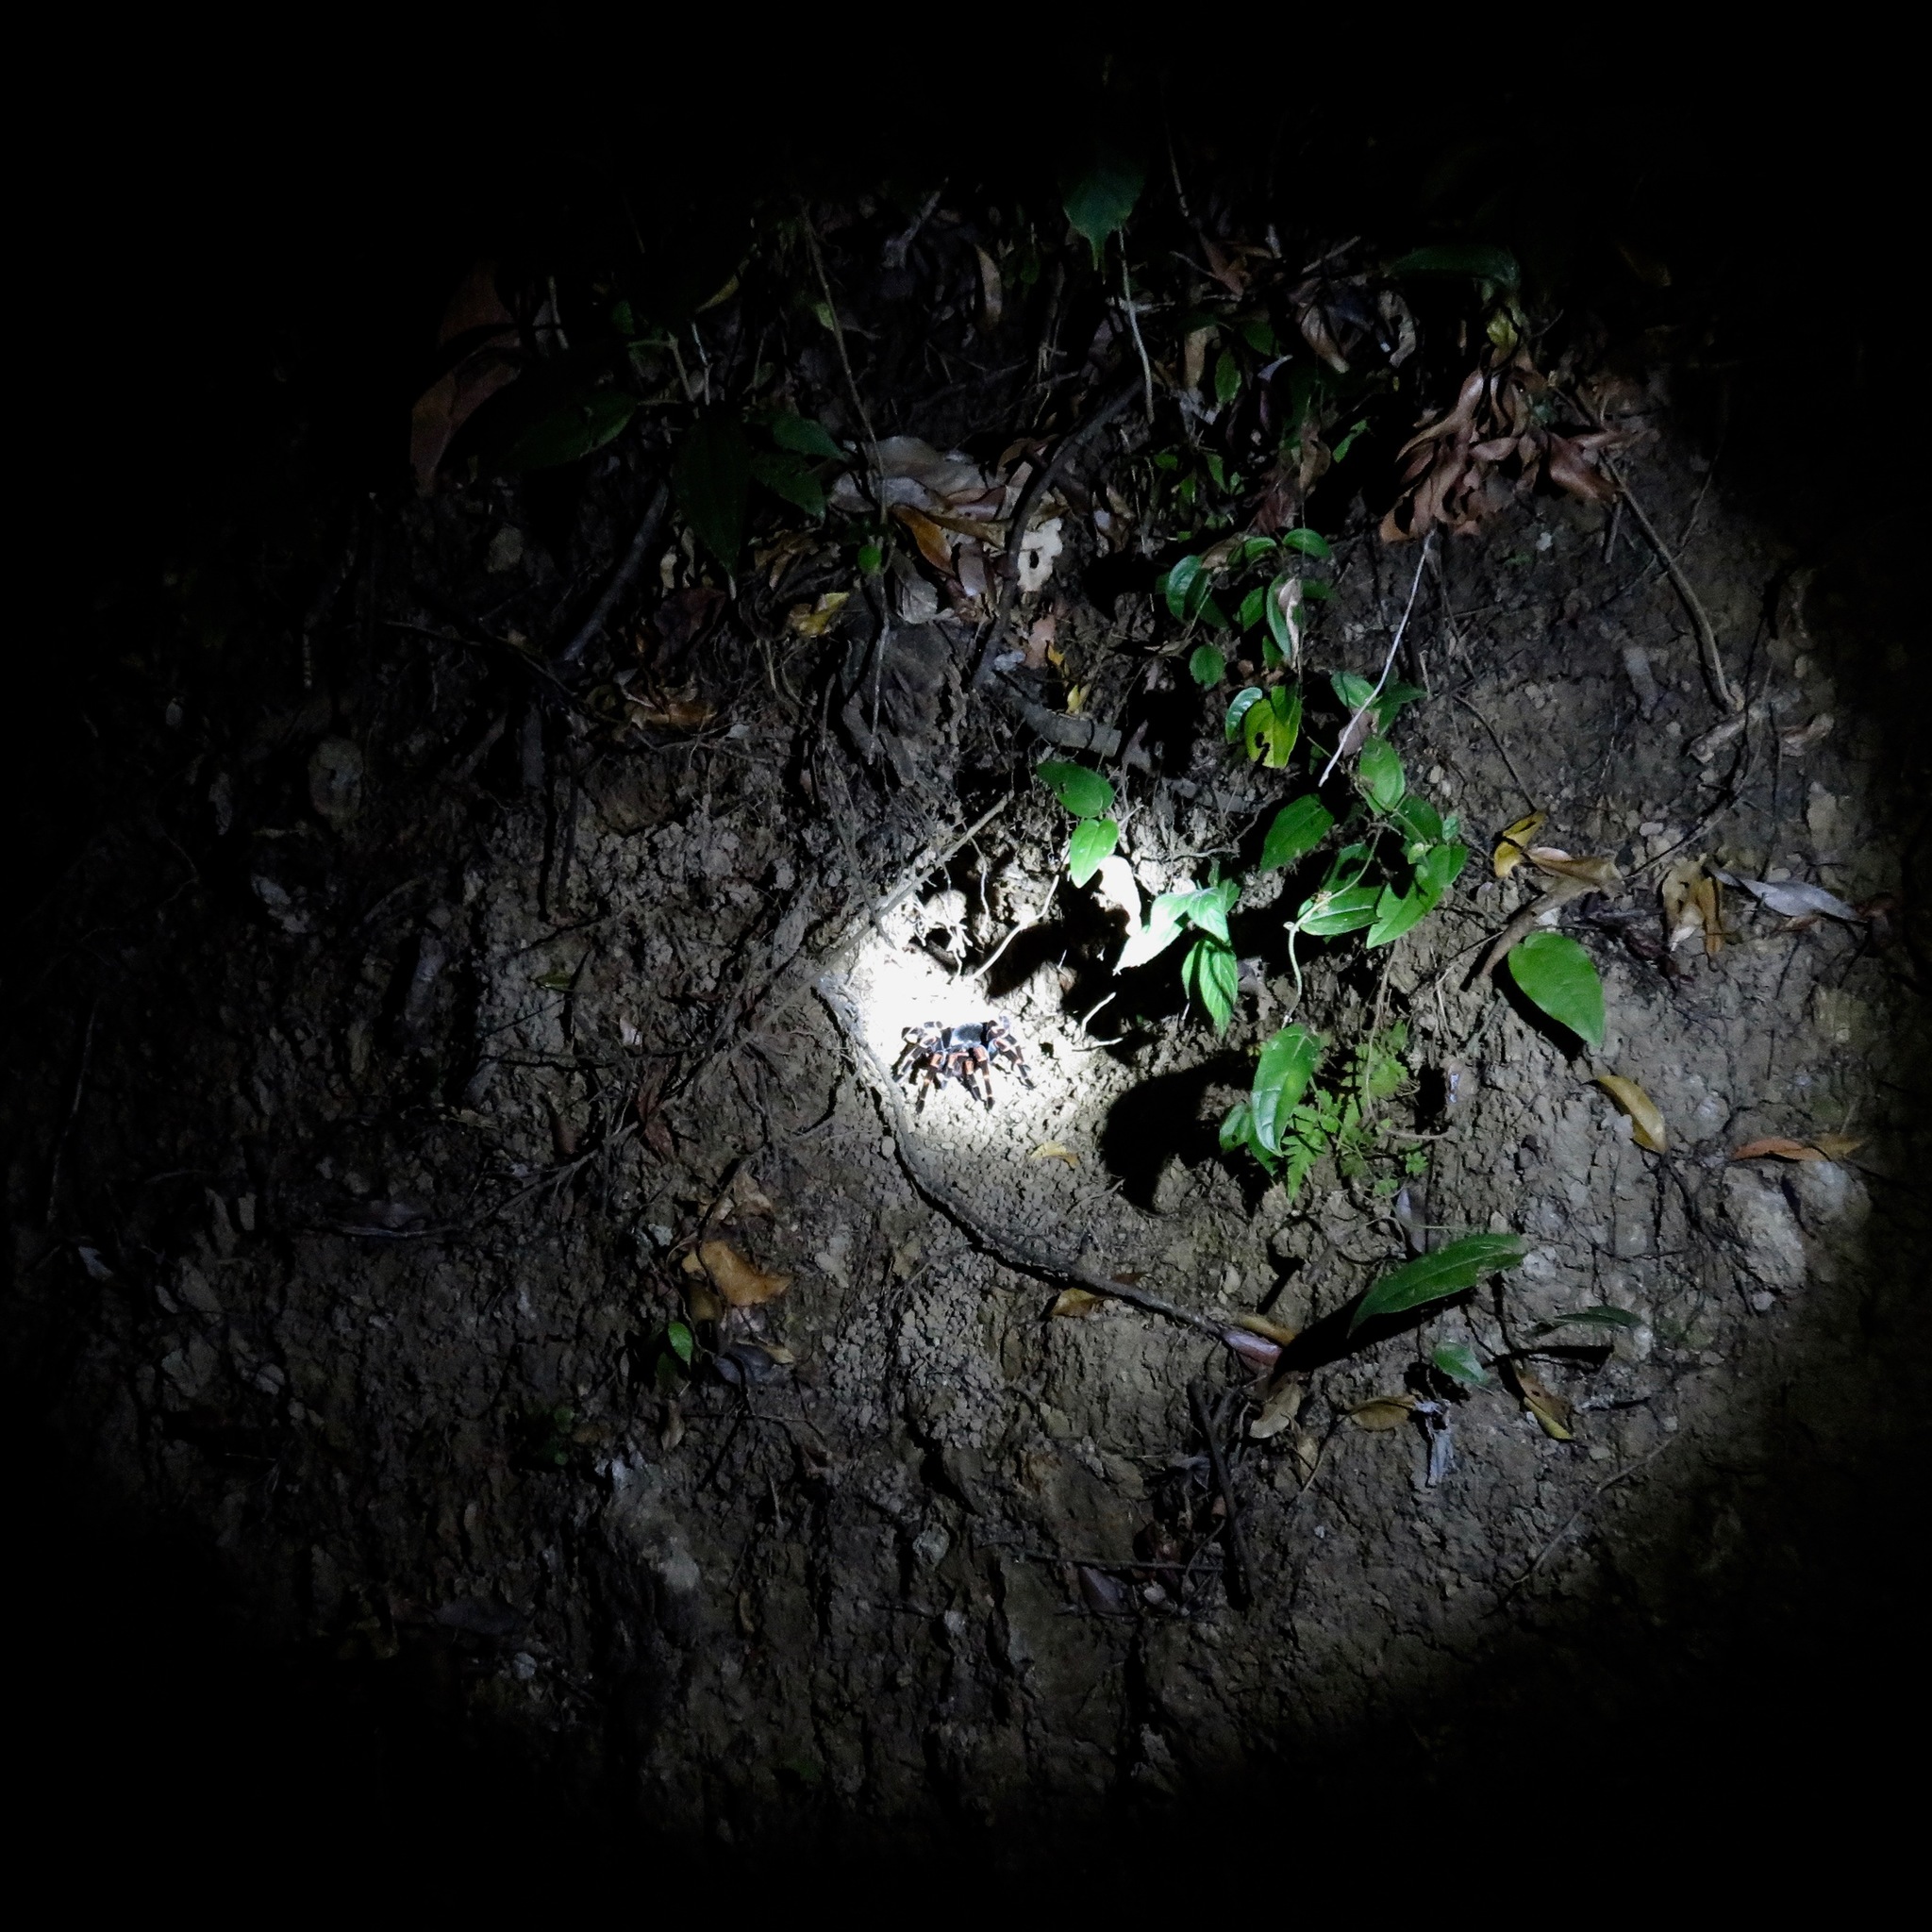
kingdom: Animalia
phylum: Arthropoda
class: Arachnida
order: Araneae
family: Theraphosidae
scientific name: Theraphosidae
